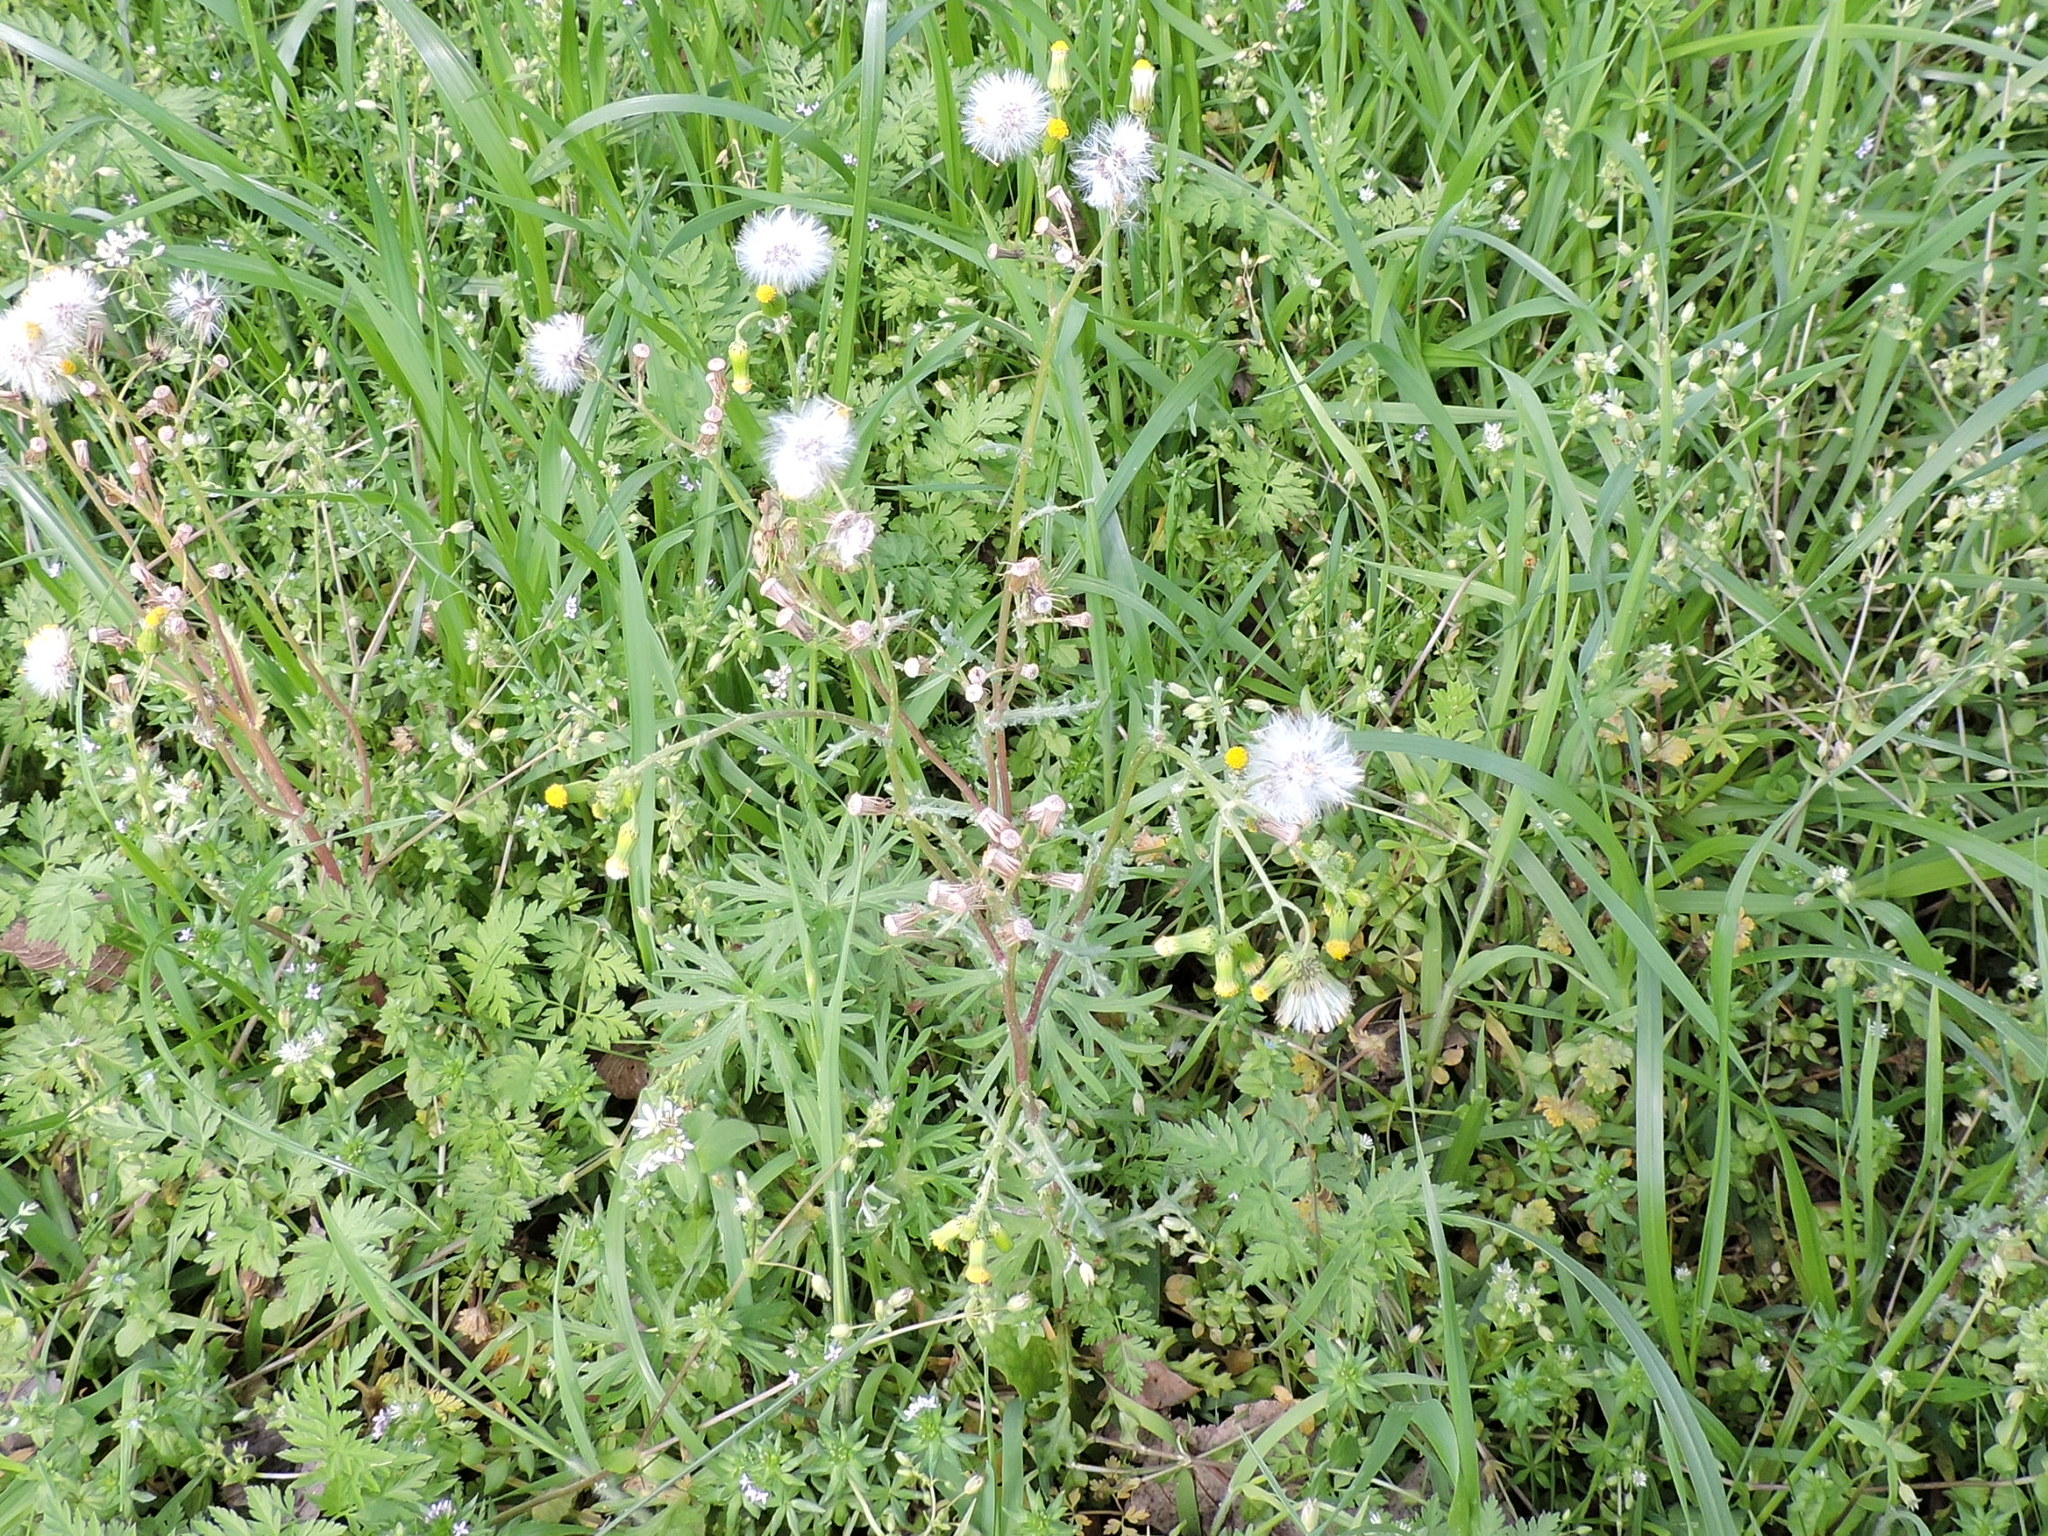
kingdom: Plantae
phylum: Tracheophyta
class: Magnoliopsida
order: Asterales
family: Asteraceae
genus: Senecio
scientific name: Senecio vulgaris
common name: Old-man-in-the-spring
